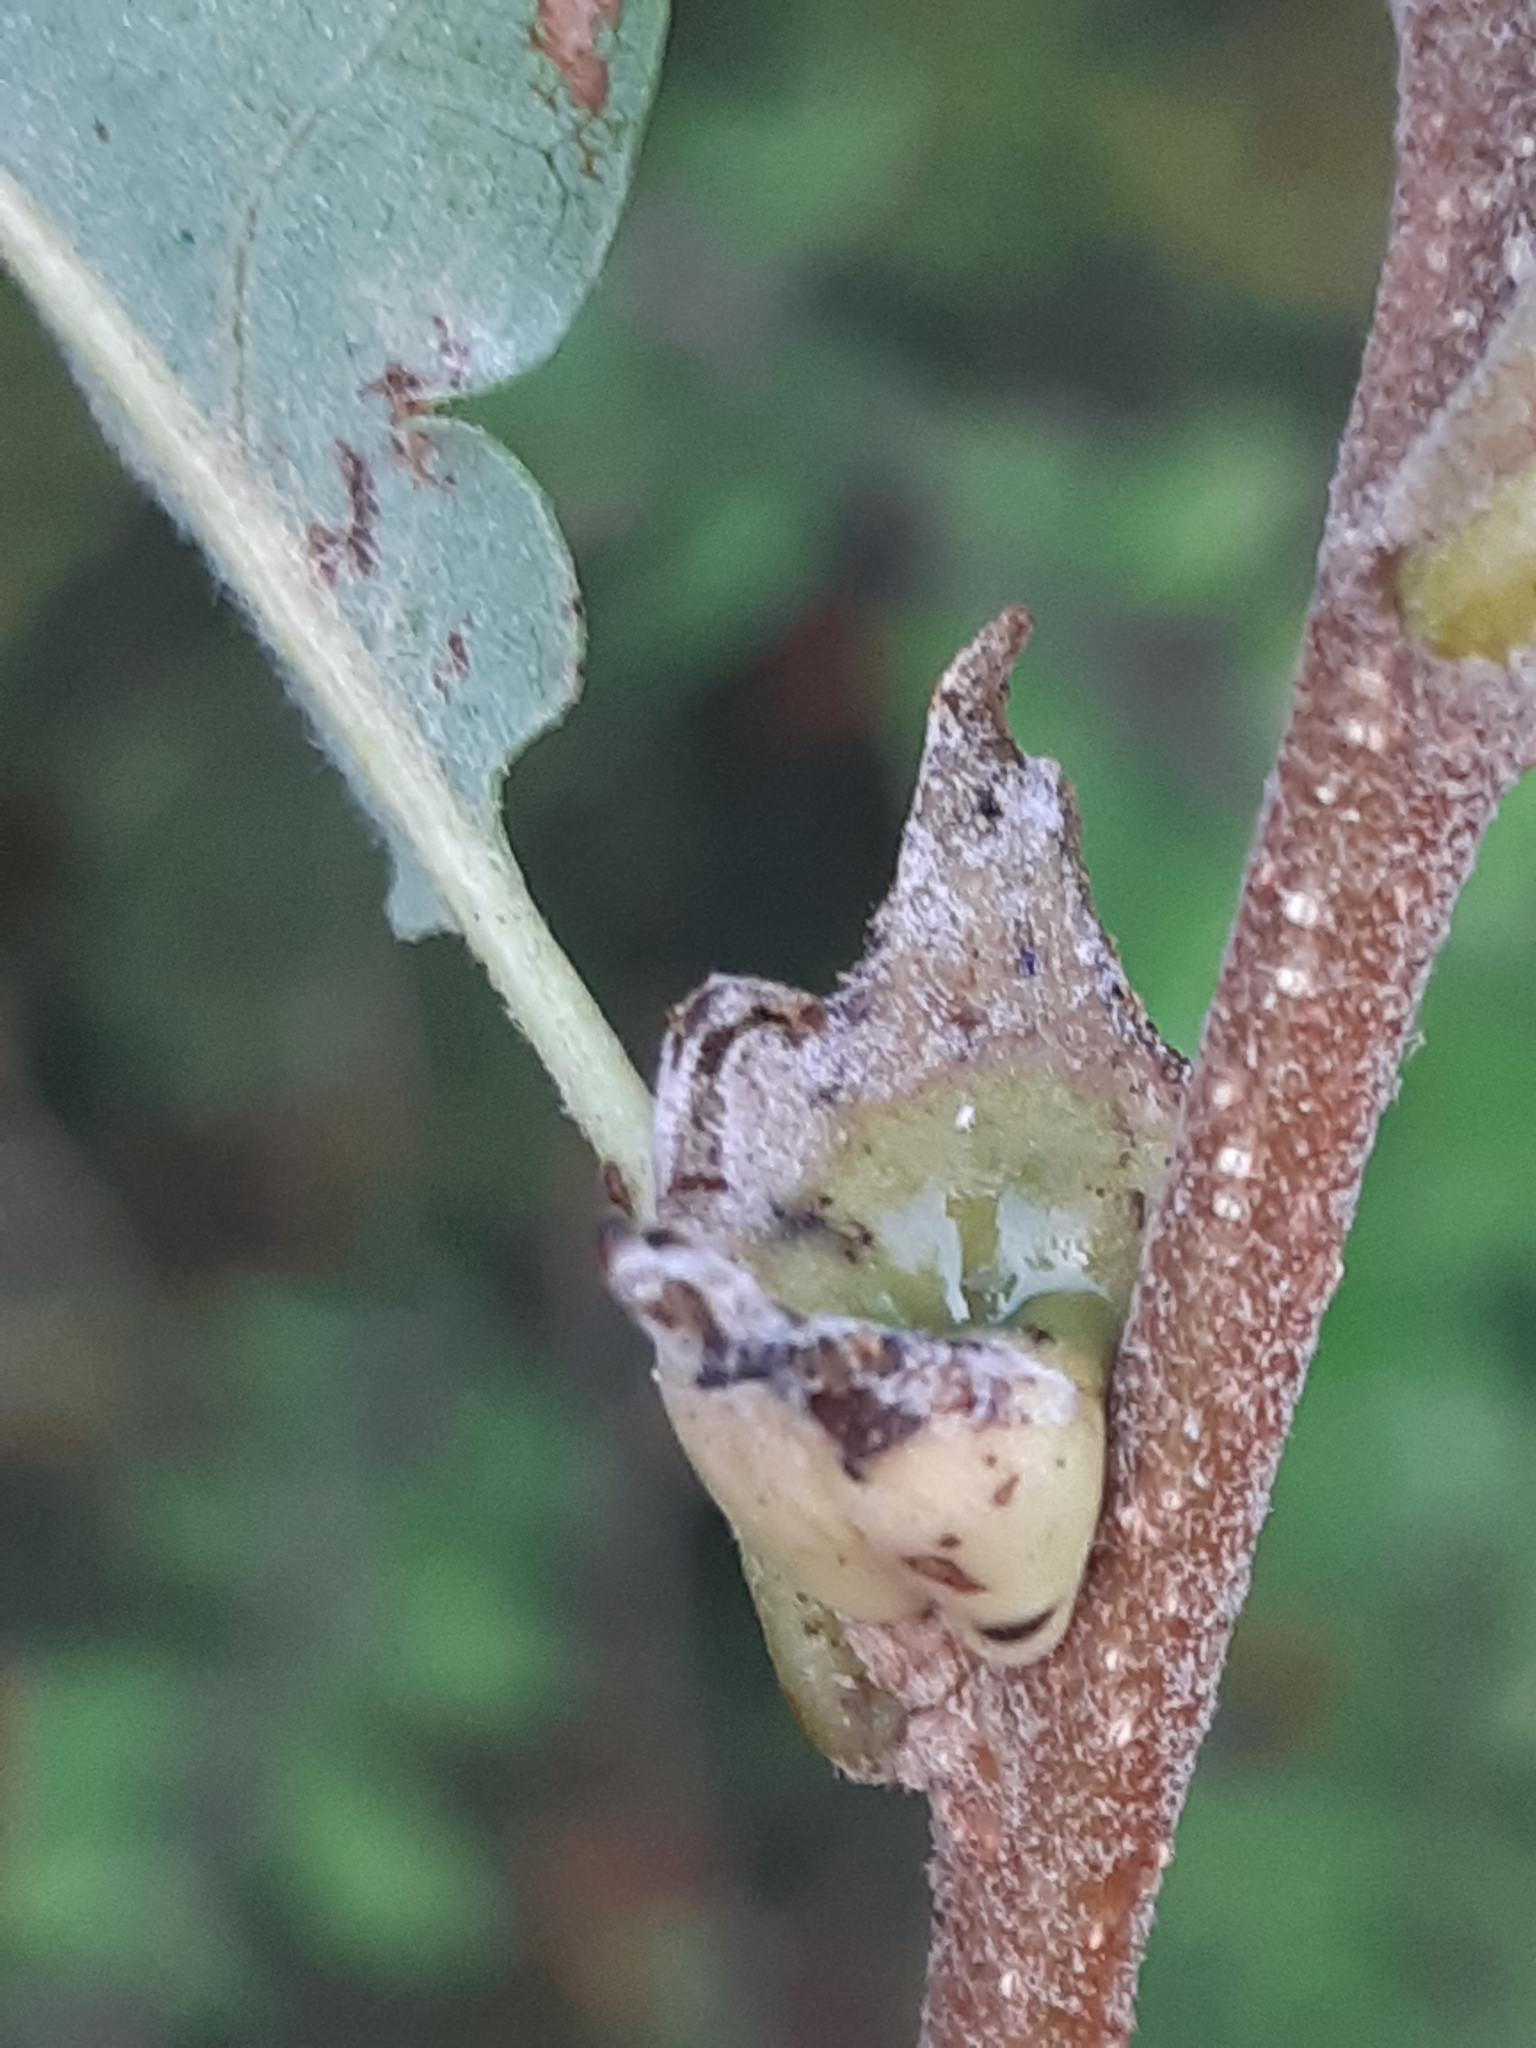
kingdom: Animalia
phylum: Arthropoda
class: Insecta
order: Hymenoptera
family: Cynipidae
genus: Andricus
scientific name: Andricus polycerus
